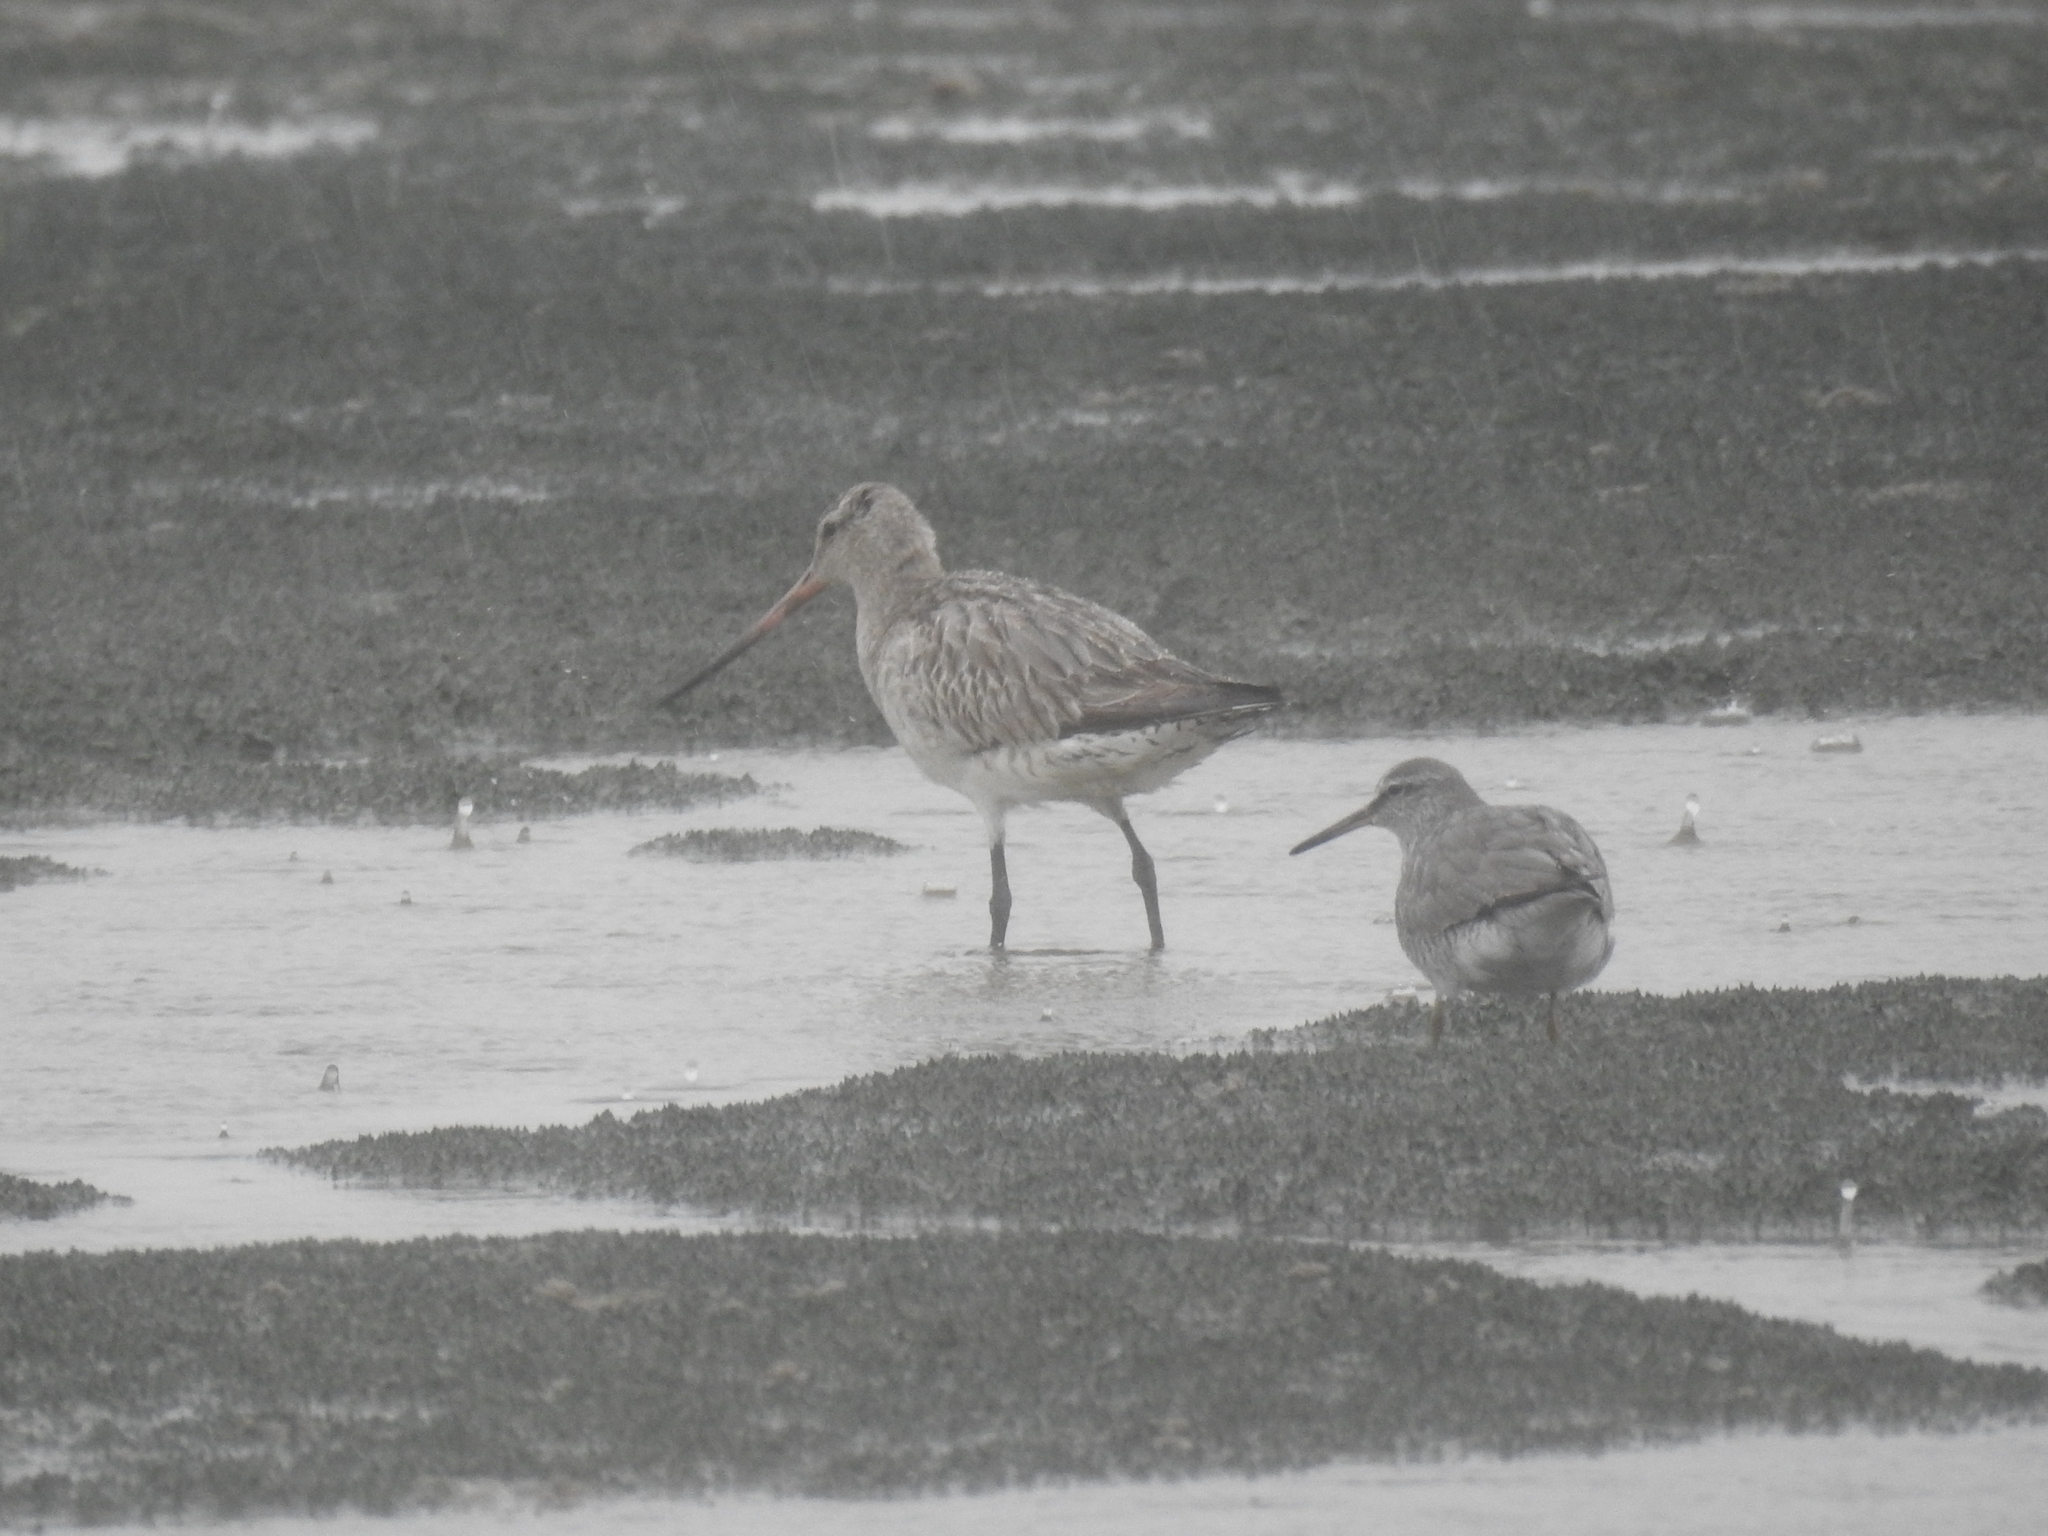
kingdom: Animalia
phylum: Chordata
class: Aves
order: Charadriiformes
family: Scolopacidae
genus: Limosa
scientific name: Limosa lapponica
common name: Bar-tailed godwit
